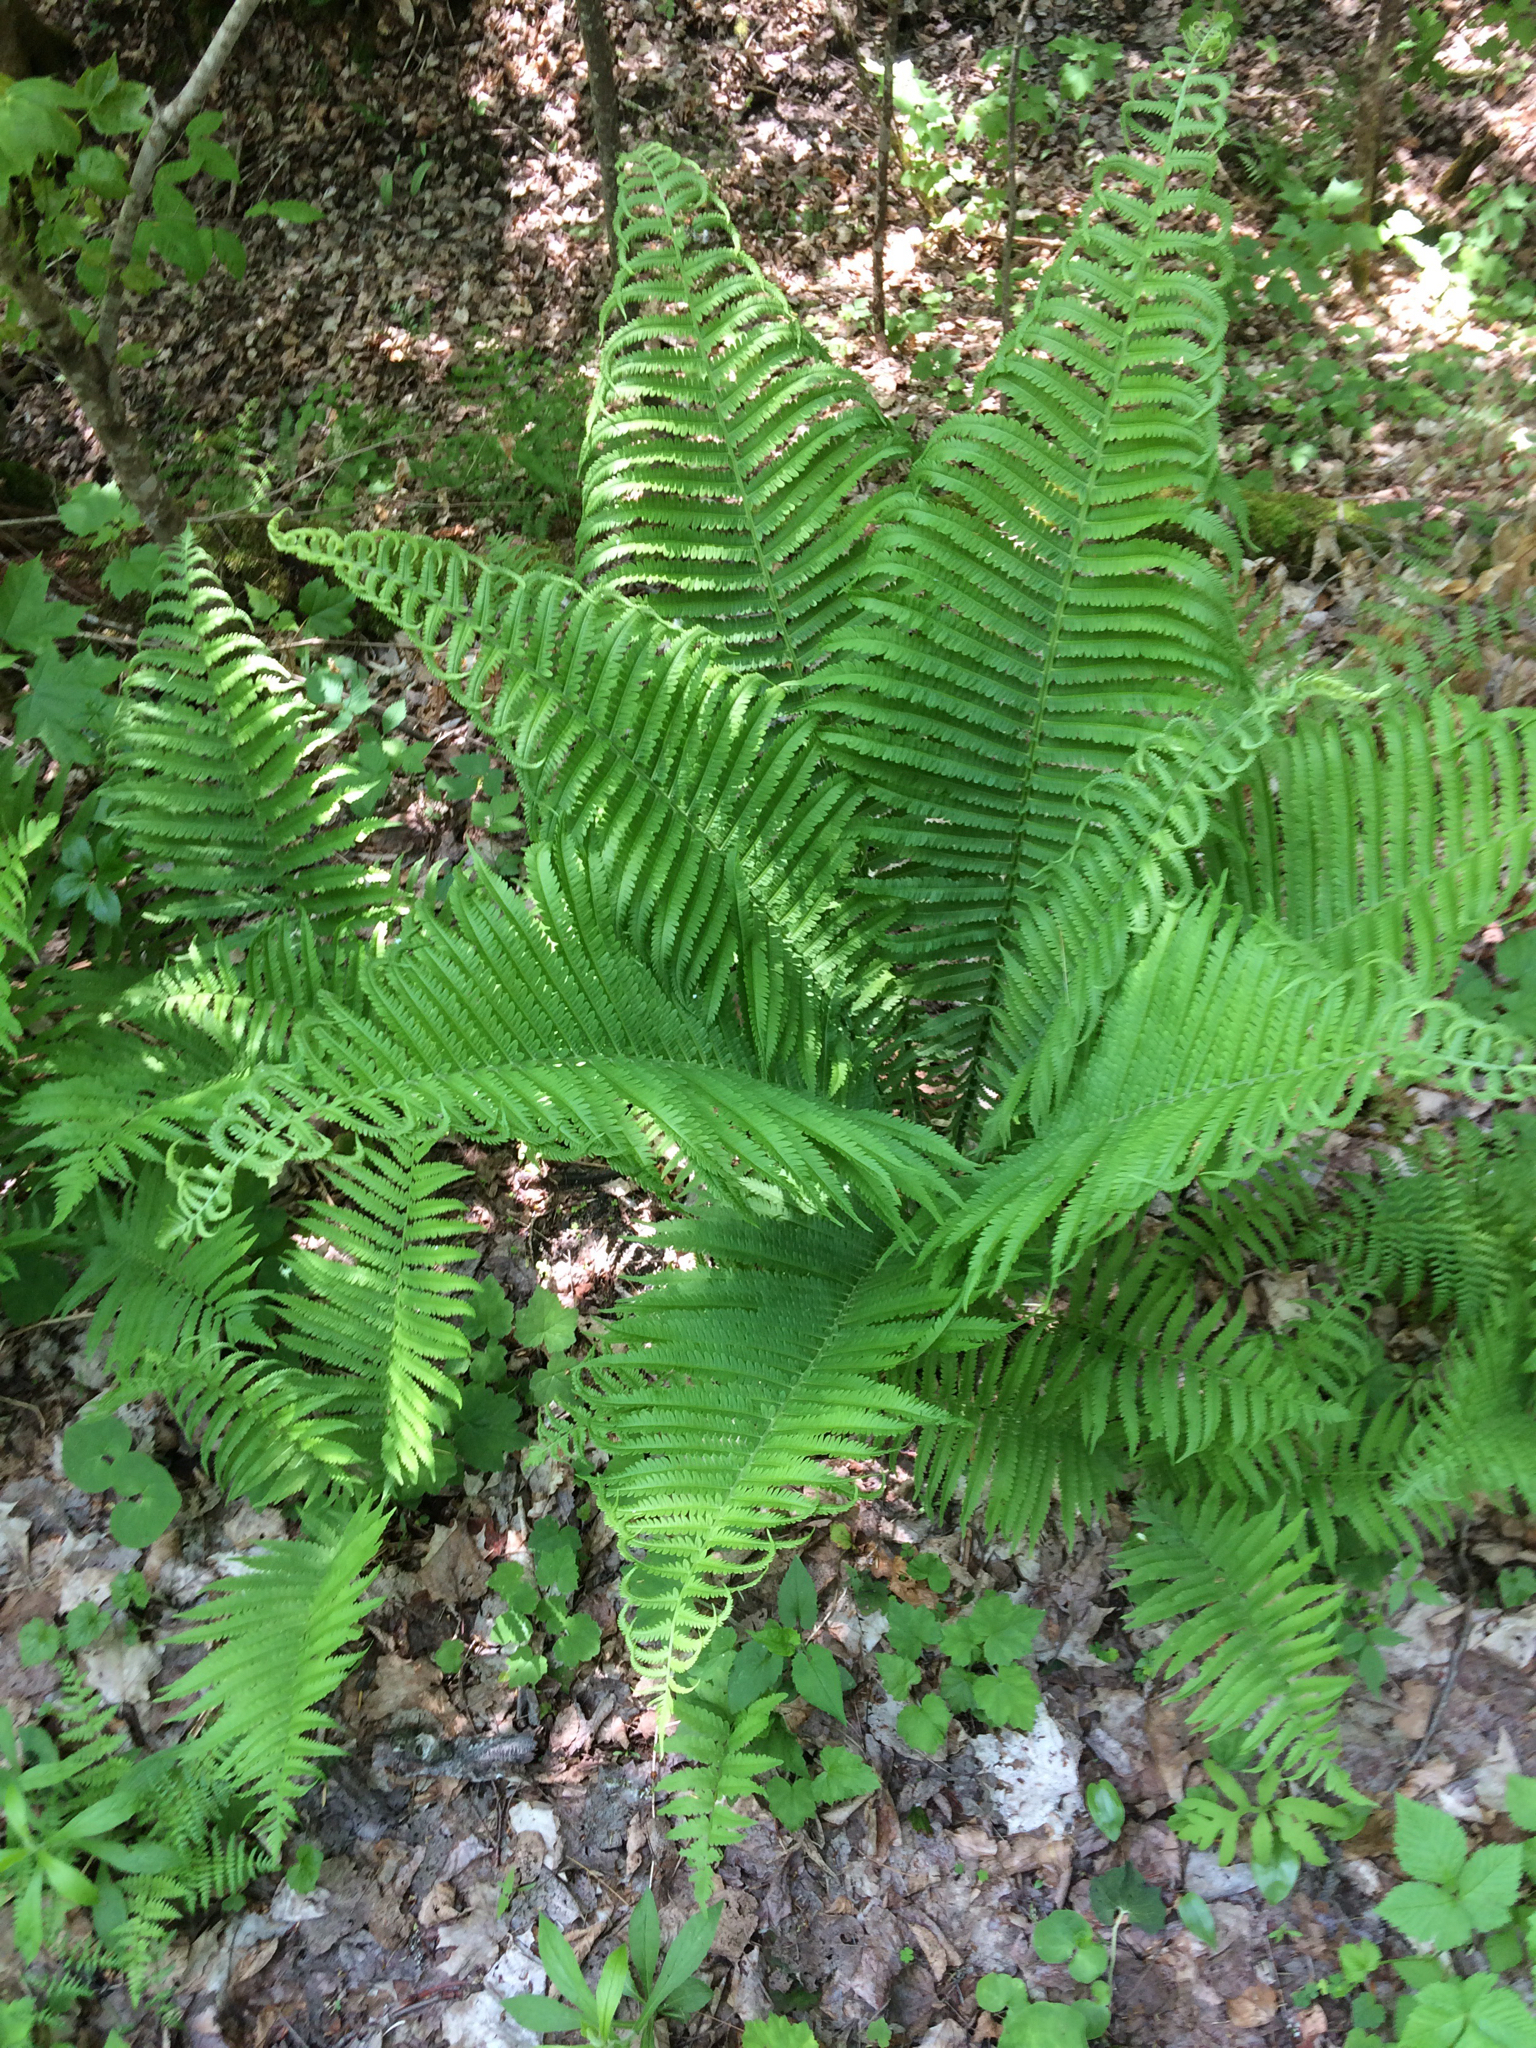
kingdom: Plantae
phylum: Tracheophyta
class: Polypodiopsida
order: Polypodiales
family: Onocleaceae
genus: Matteuccia
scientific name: Matteuccia struthiopteris
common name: Ostrich fern
